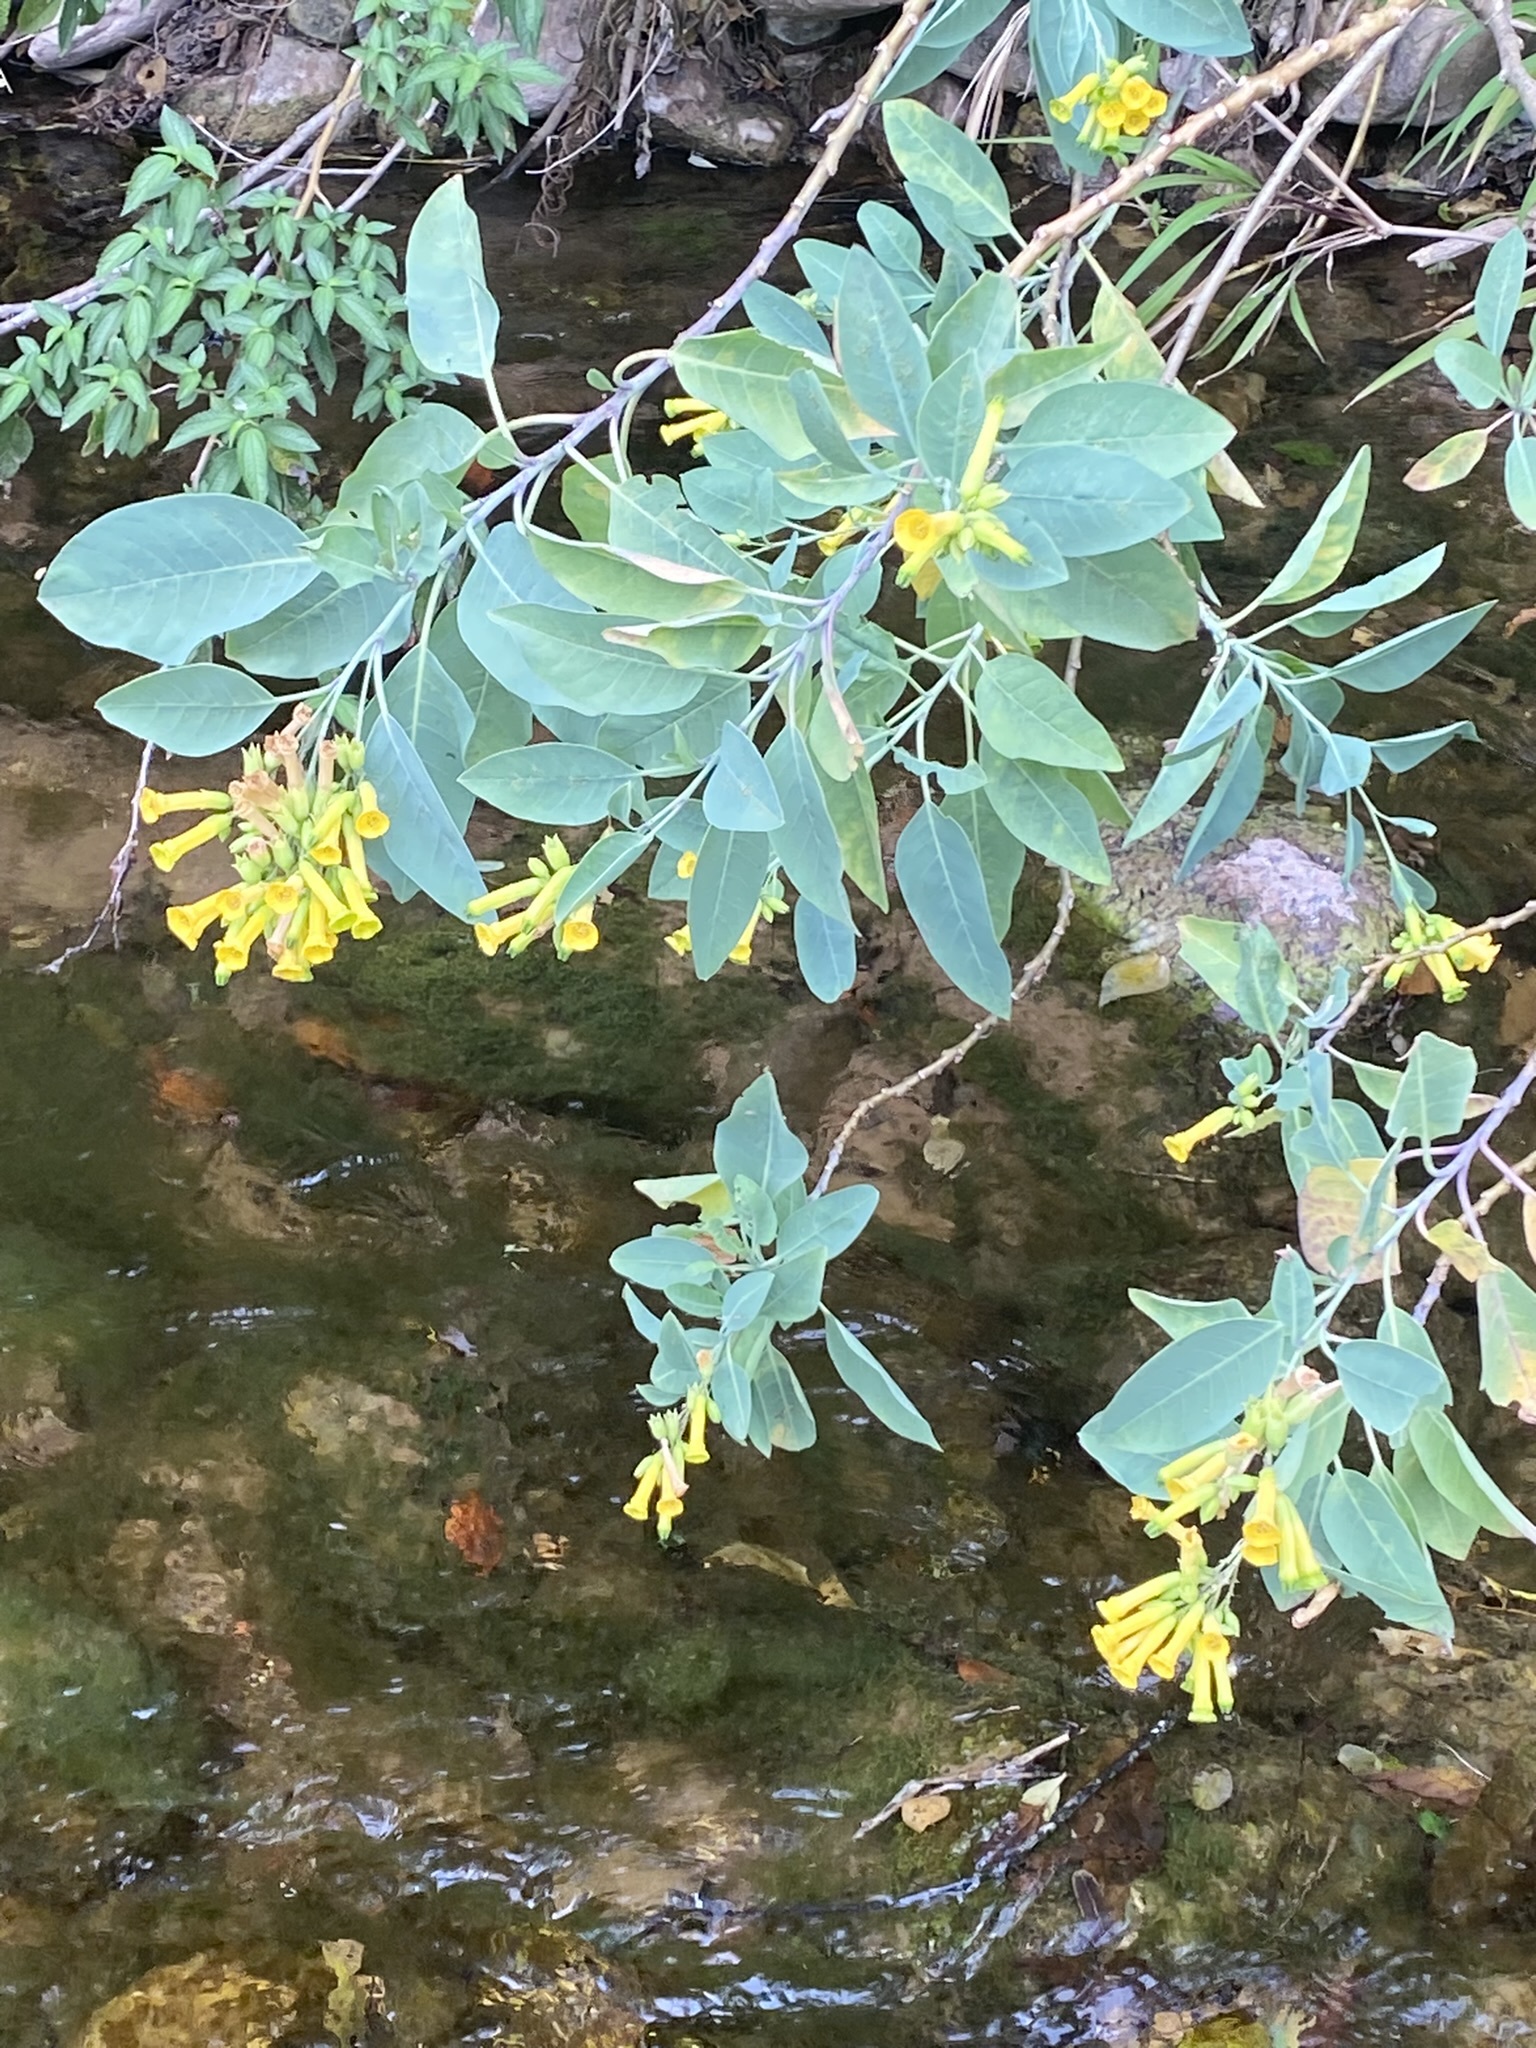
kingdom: Plantae
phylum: Tracheophyta
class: Magnoliopsida
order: Solanales
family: Solanaceae
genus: Nicotiana
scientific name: Nicotiana glauca
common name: Tree tobacco
